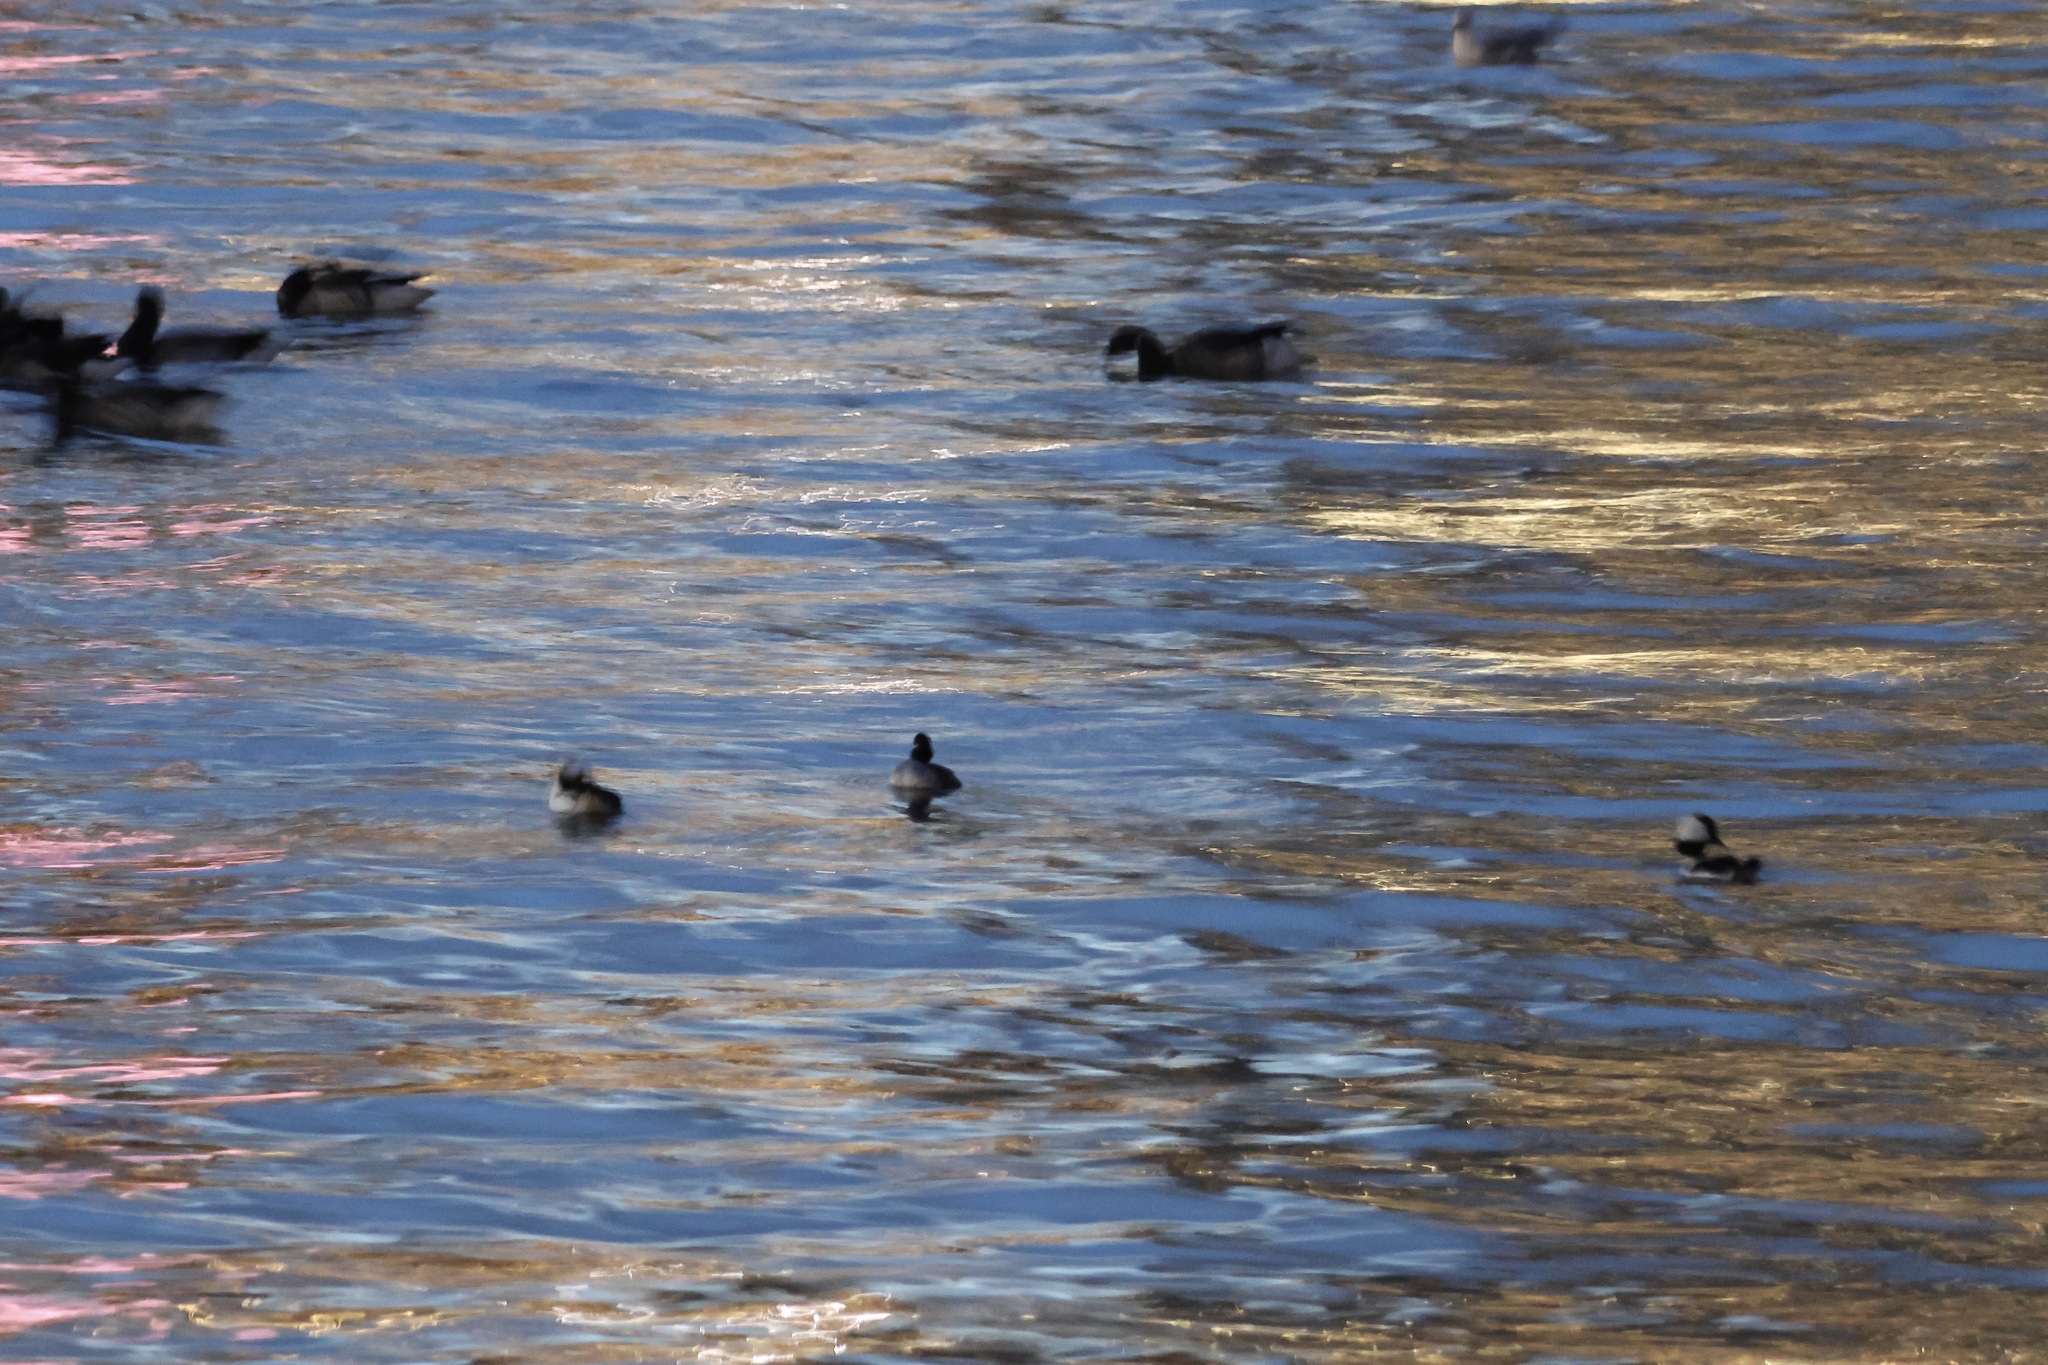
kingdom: Animalia
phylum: Chordata
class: Aves
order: Anseriformes
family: Anatidae
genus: Bucephala
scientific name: Bucephala albeola
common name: Bufflehead
